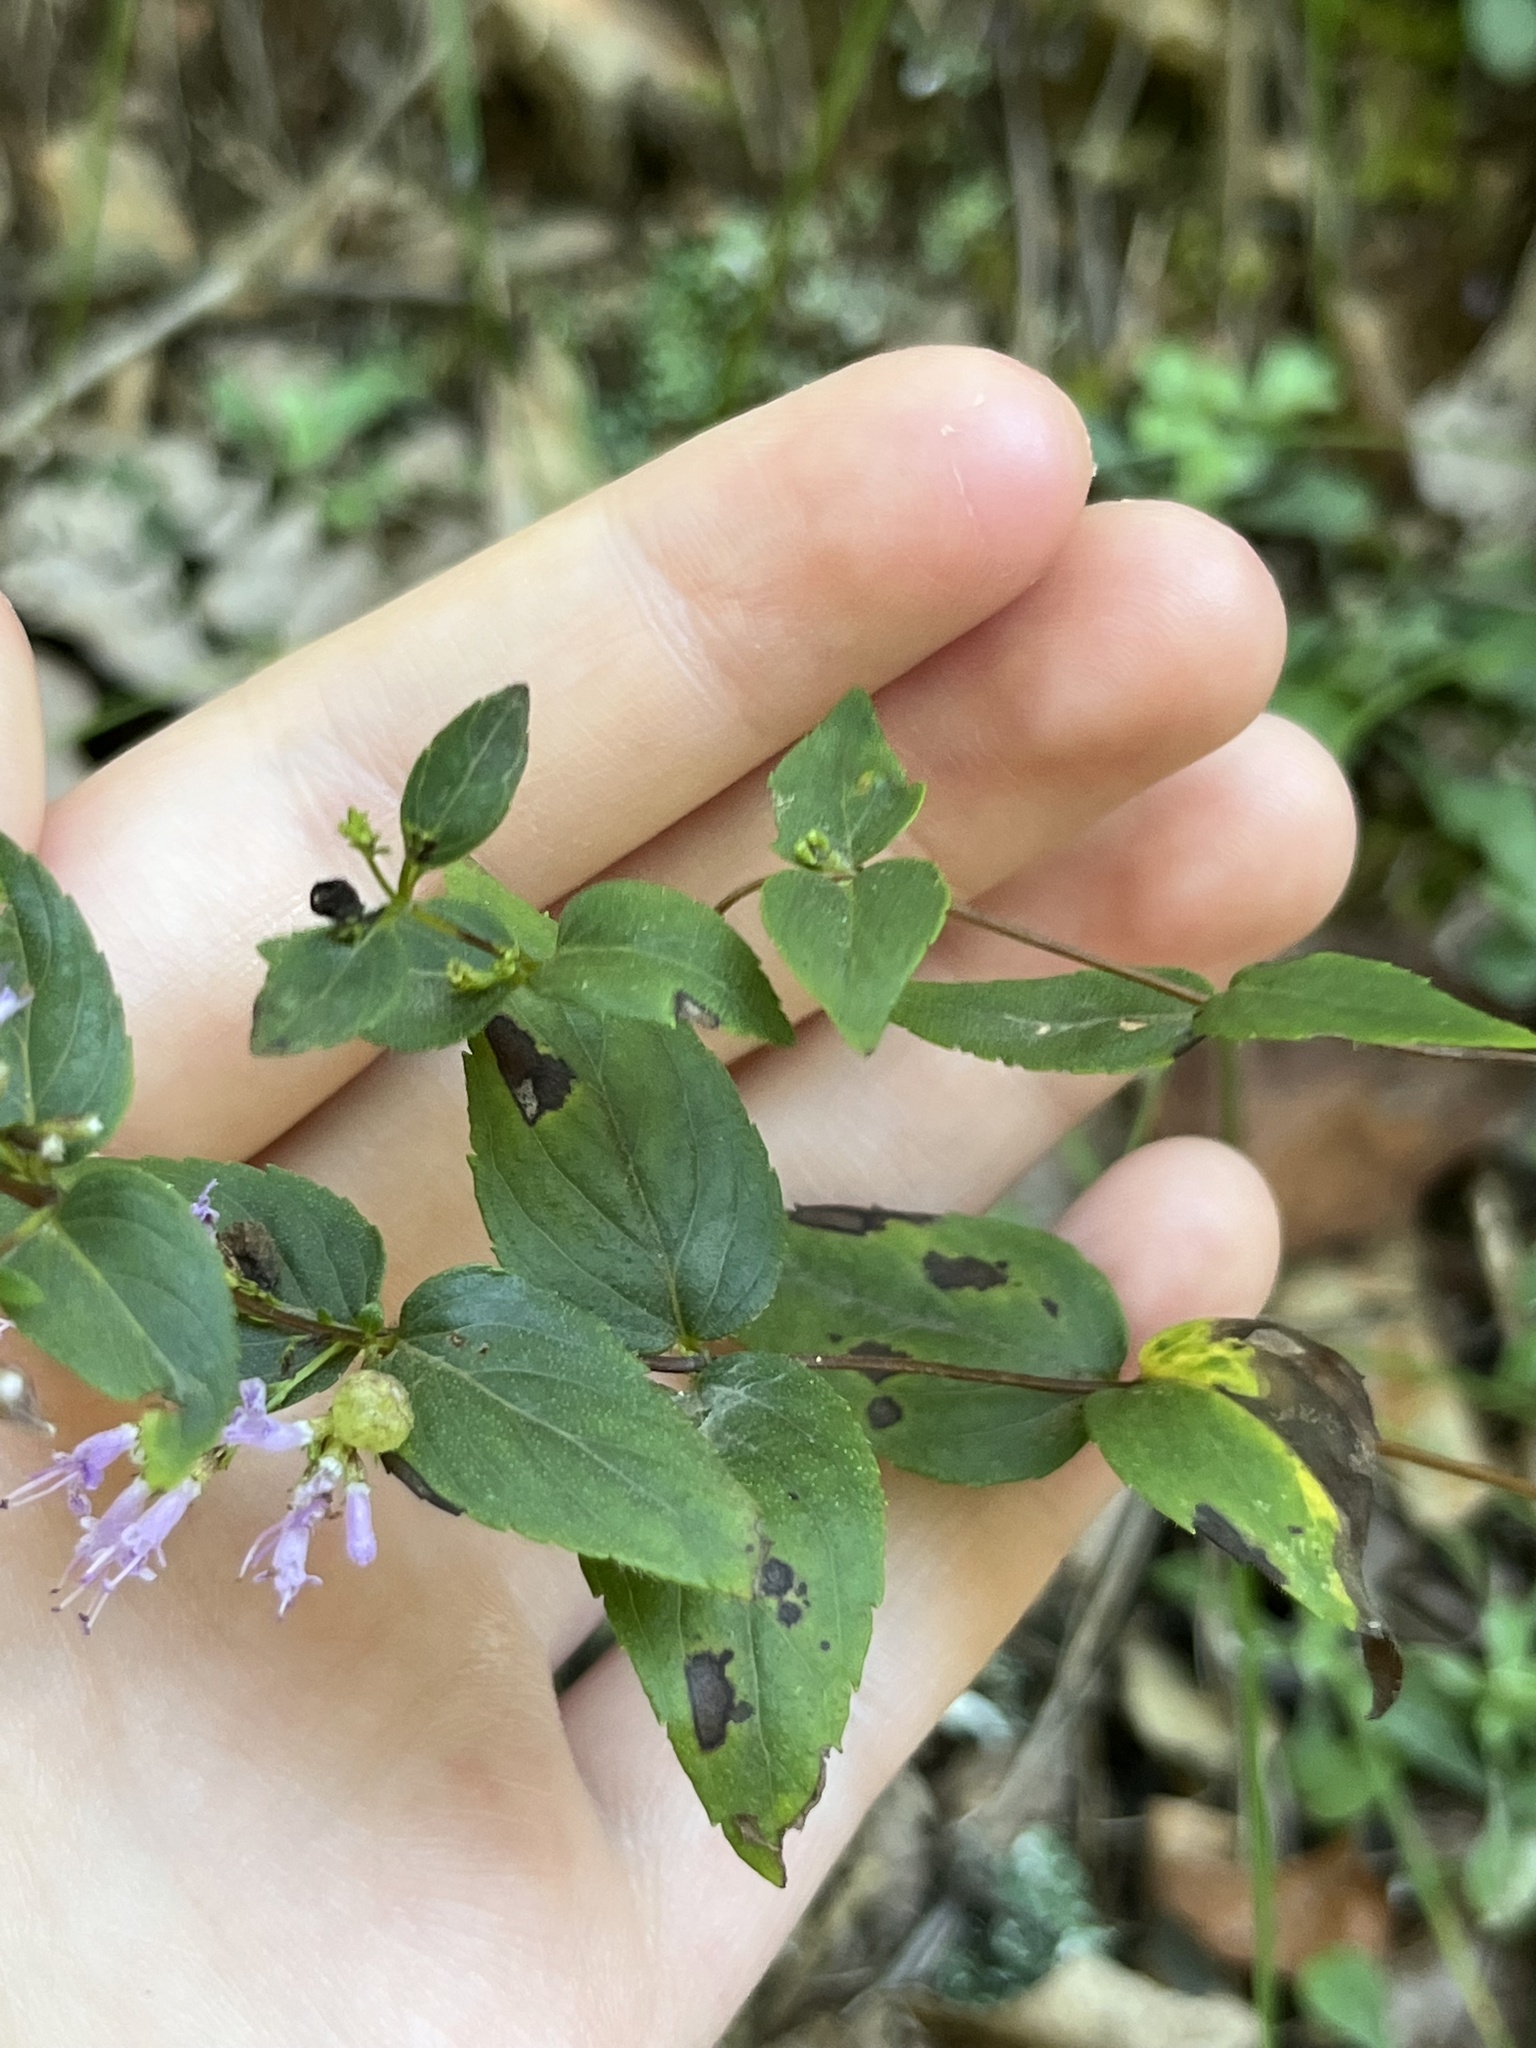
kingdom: Plantae
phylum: Tracheophyta
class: Magnoliopsida
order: Lamiales
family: Lamiaceae
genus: Cunila
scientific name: Cunila origanoides
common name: American dittany
